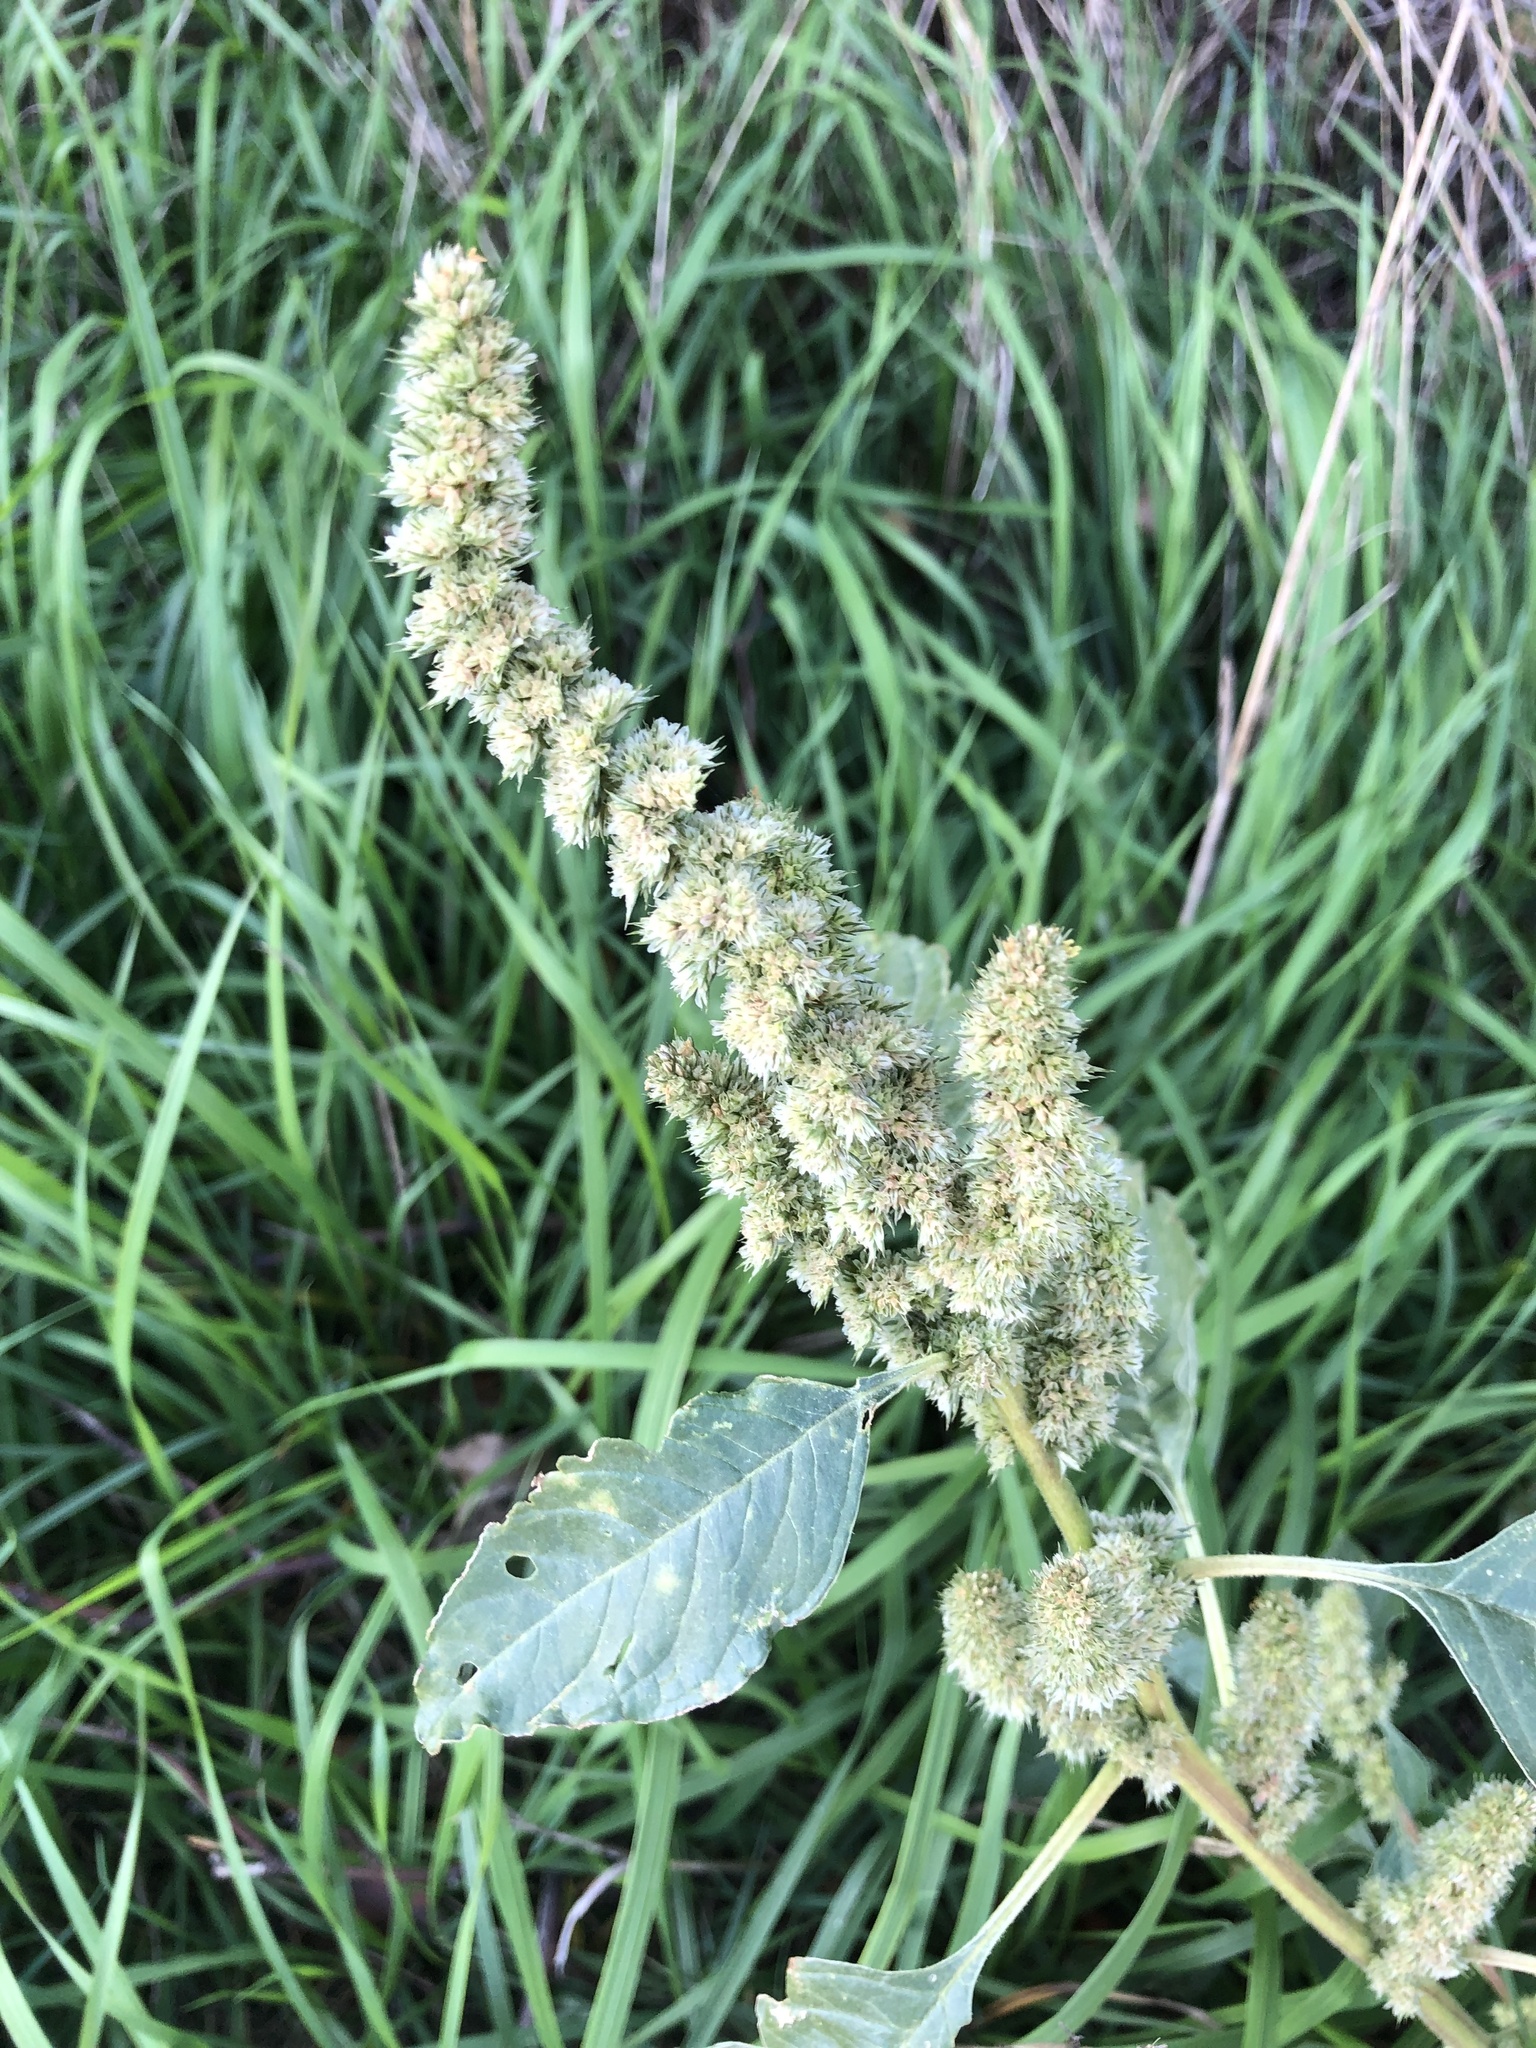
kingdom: Plantae
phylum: Tracheophyta
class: Magnoliopsida
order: Caryophyllales
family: Amaranthaceae
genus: Amaranthus
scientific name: Amaranthus retroflexus
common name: Redroot amaranth
